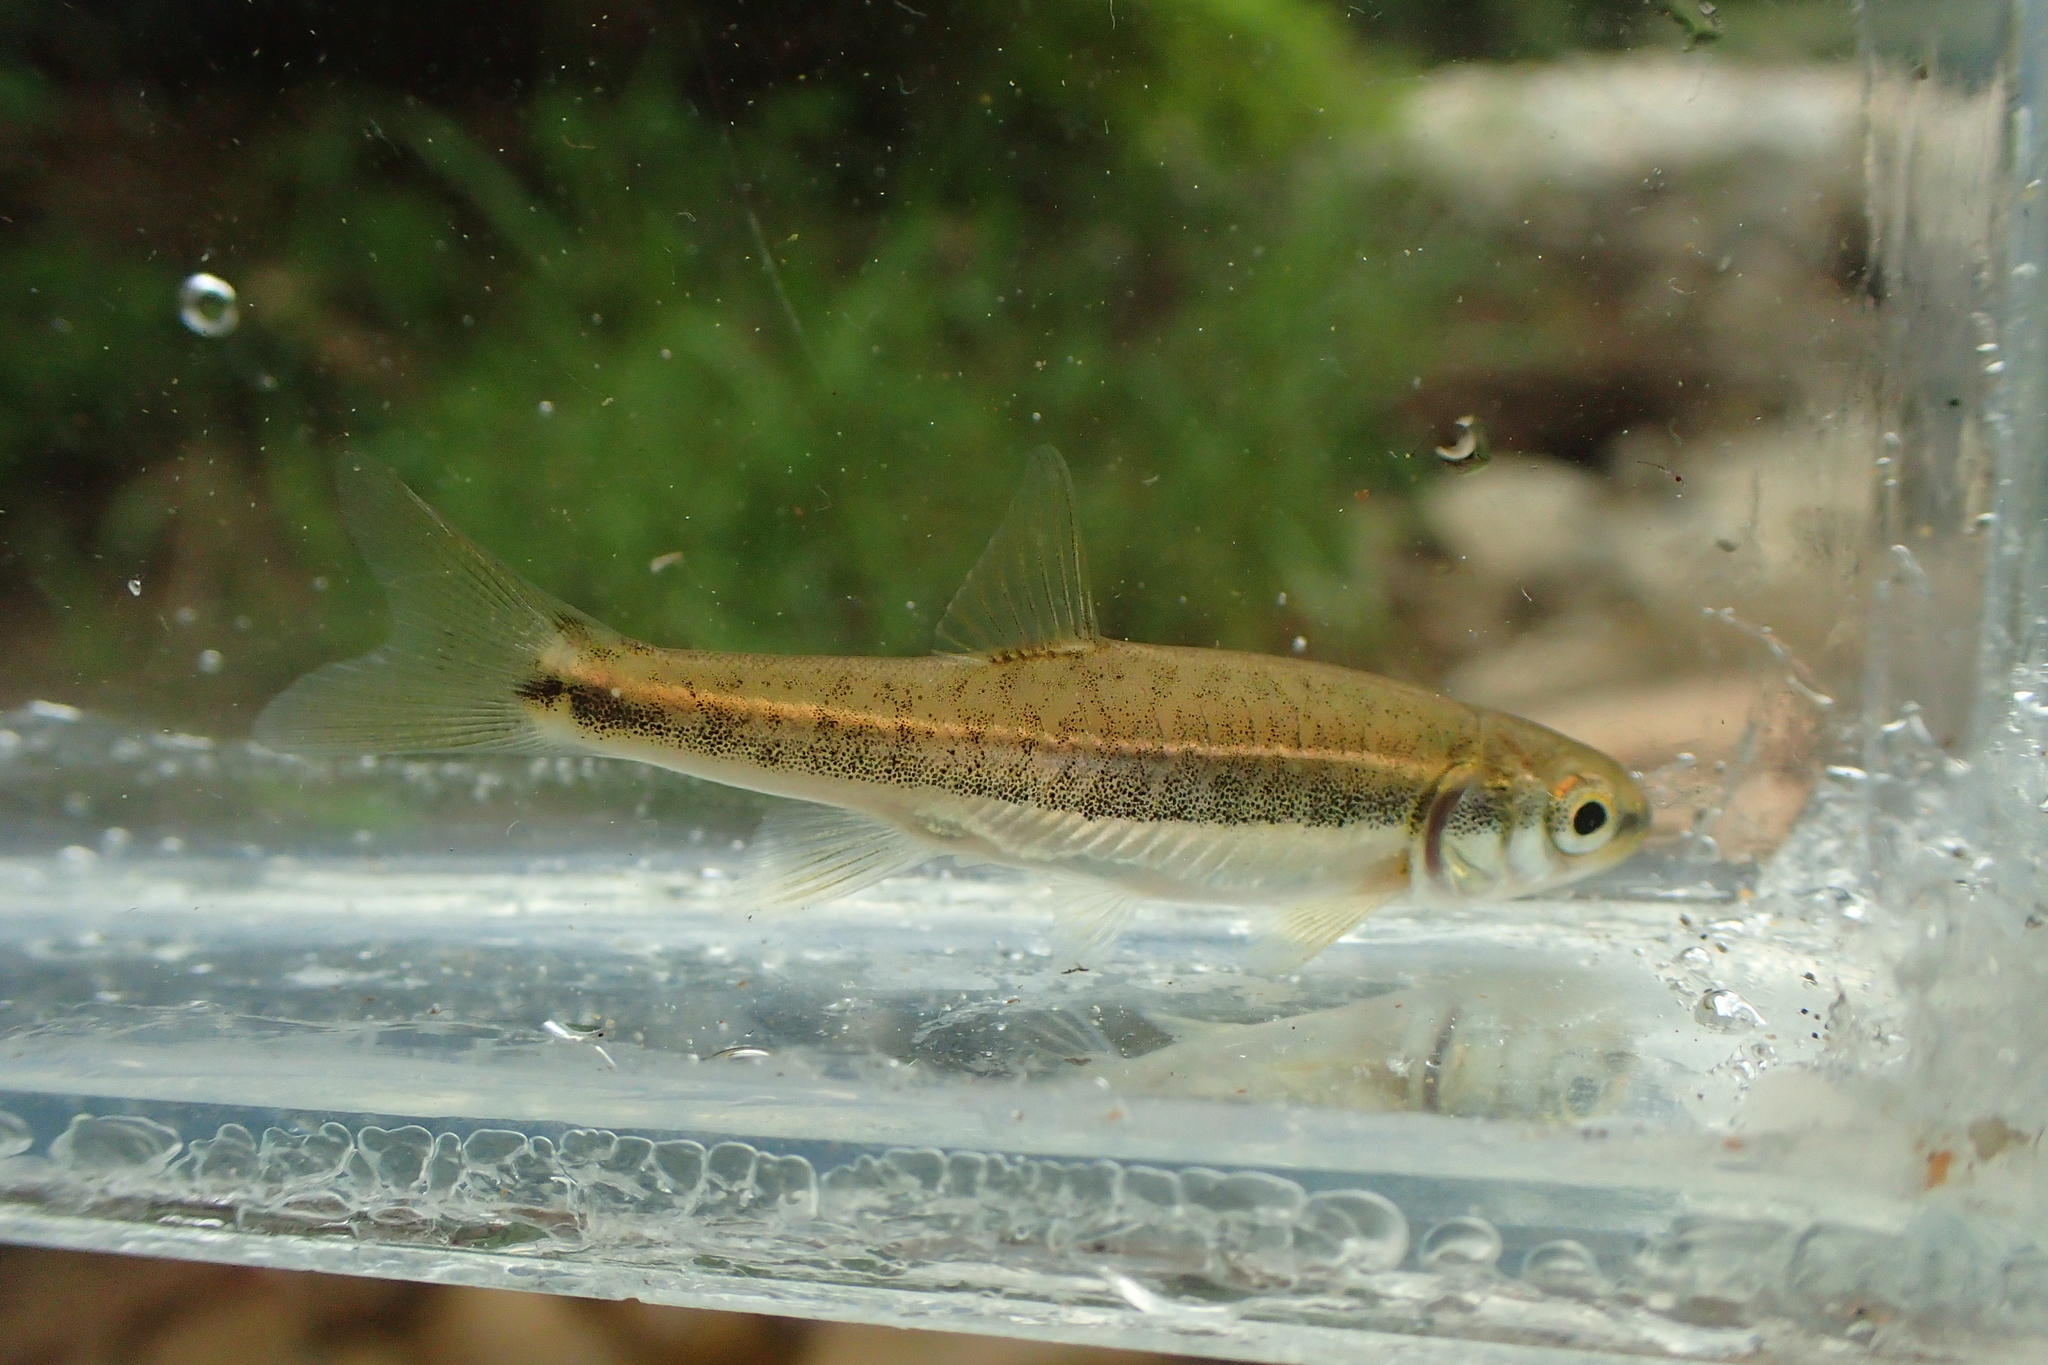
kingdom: Animalia
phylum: Chordata
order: Cypriniformes
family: Cyprinidae
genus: Phoxinus
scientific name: Phoxinus dragarum
